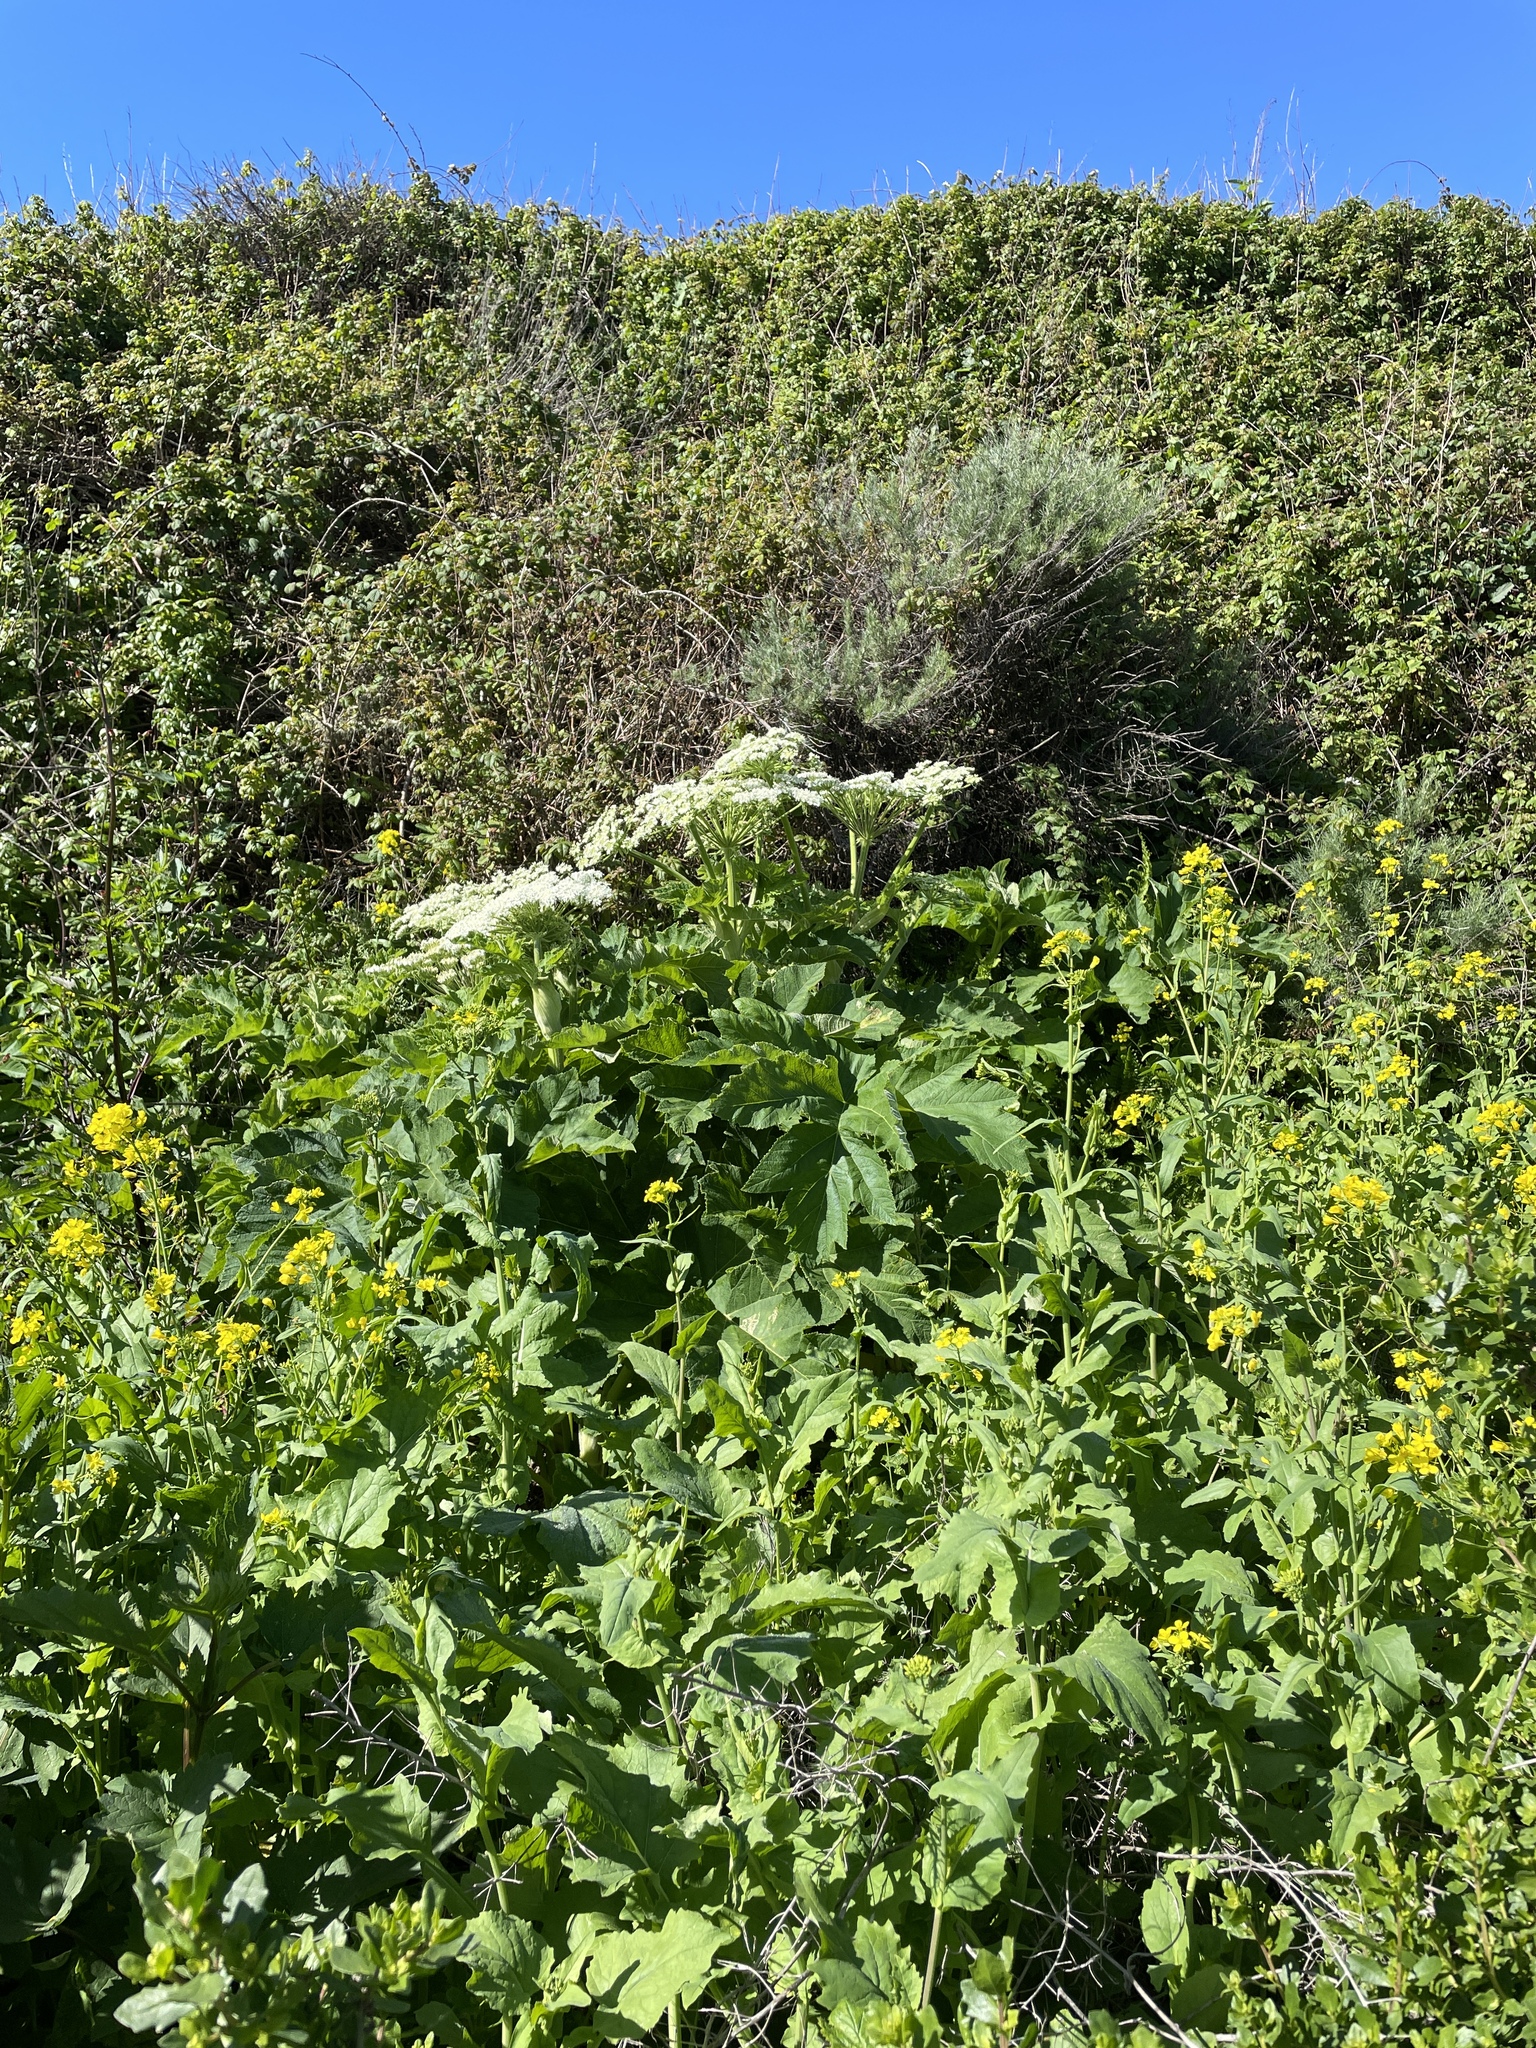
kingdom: Plantae
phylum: Tracheophyta
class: Magnoliopsida
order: Apiales
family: Apiaceae
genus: Heracleum
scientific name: Heracleum maximum
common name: American cow parsnip
